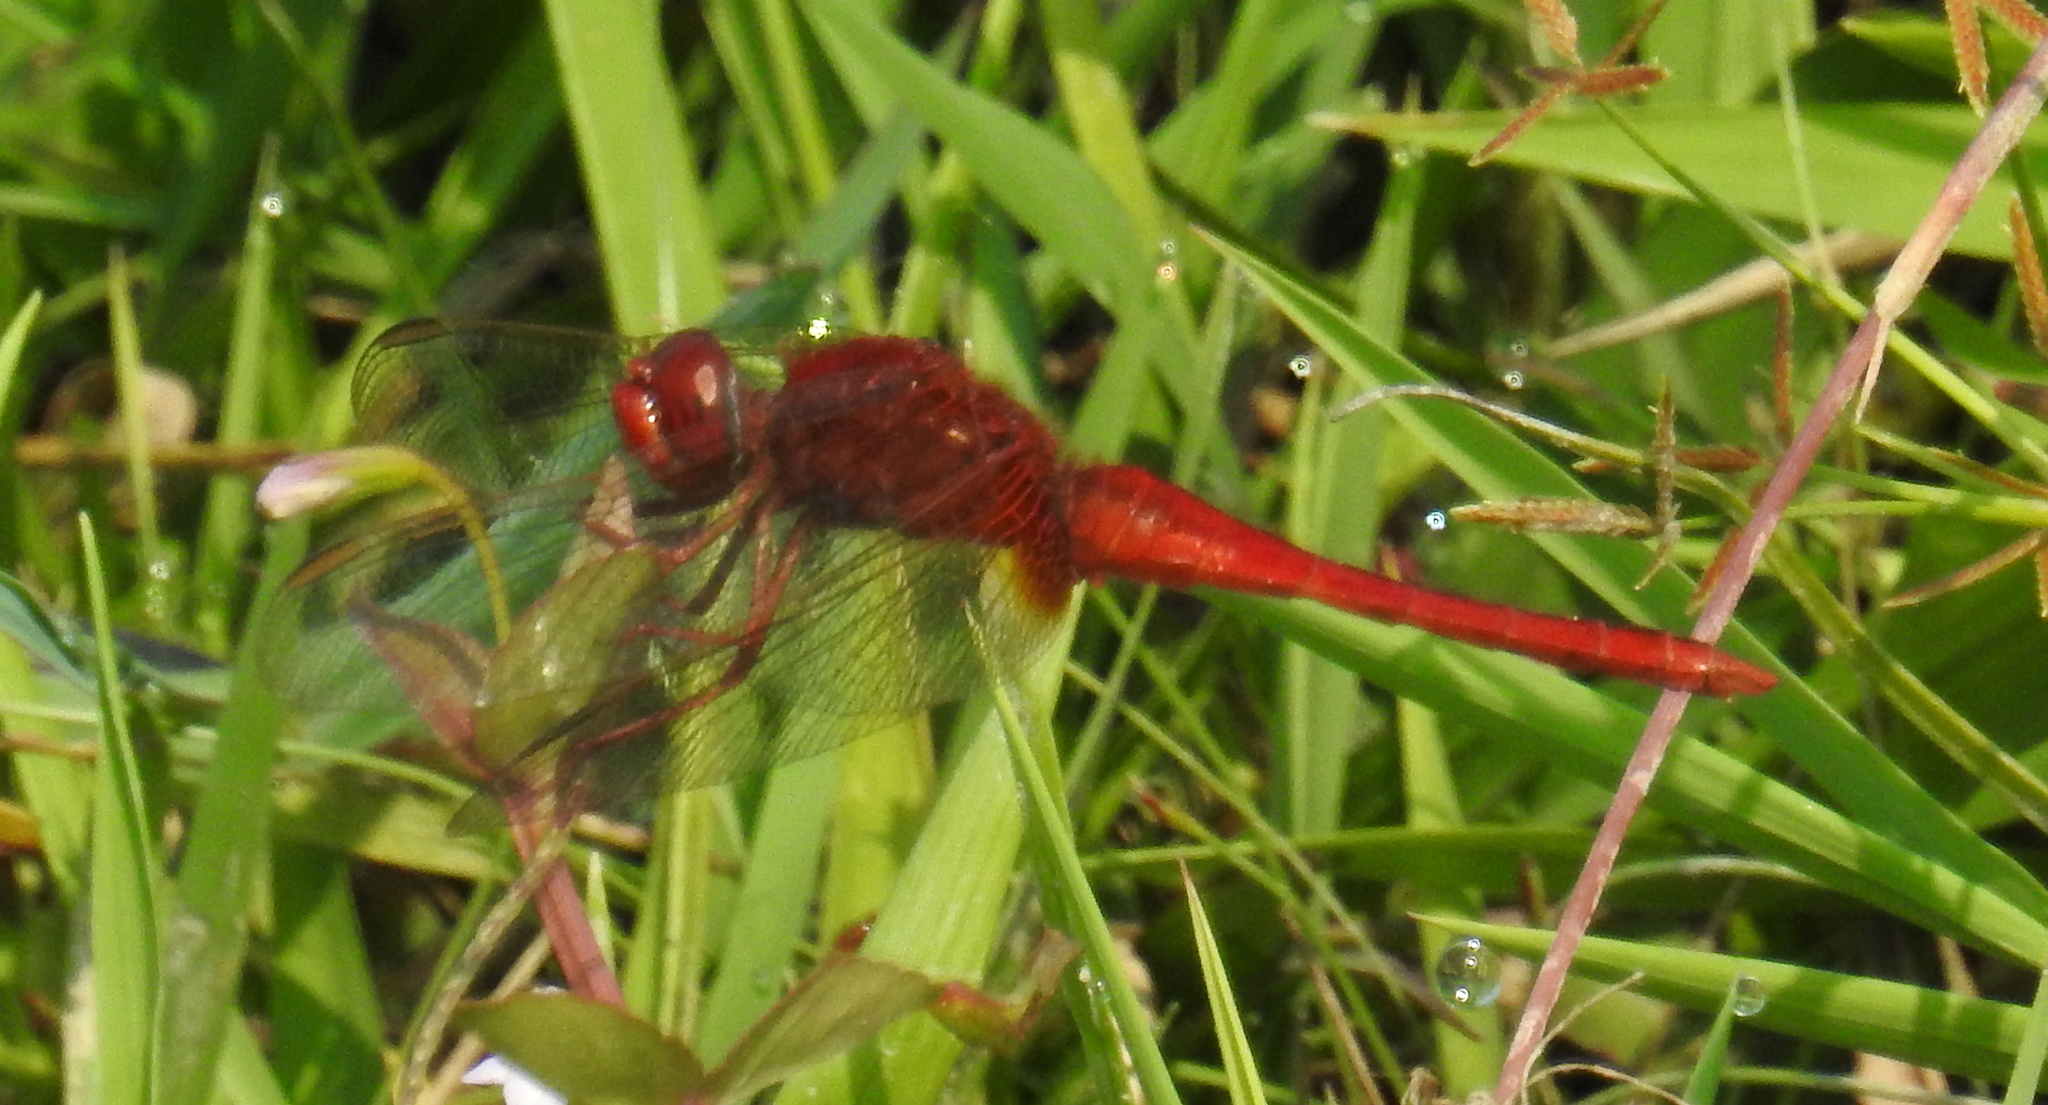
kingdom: Animalia
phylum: Arthropoda
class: Insecta
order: Odonata
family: Libellulidae
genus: Crocothemis
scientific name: Crocothemis servilia
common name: Scarlet skimmer
